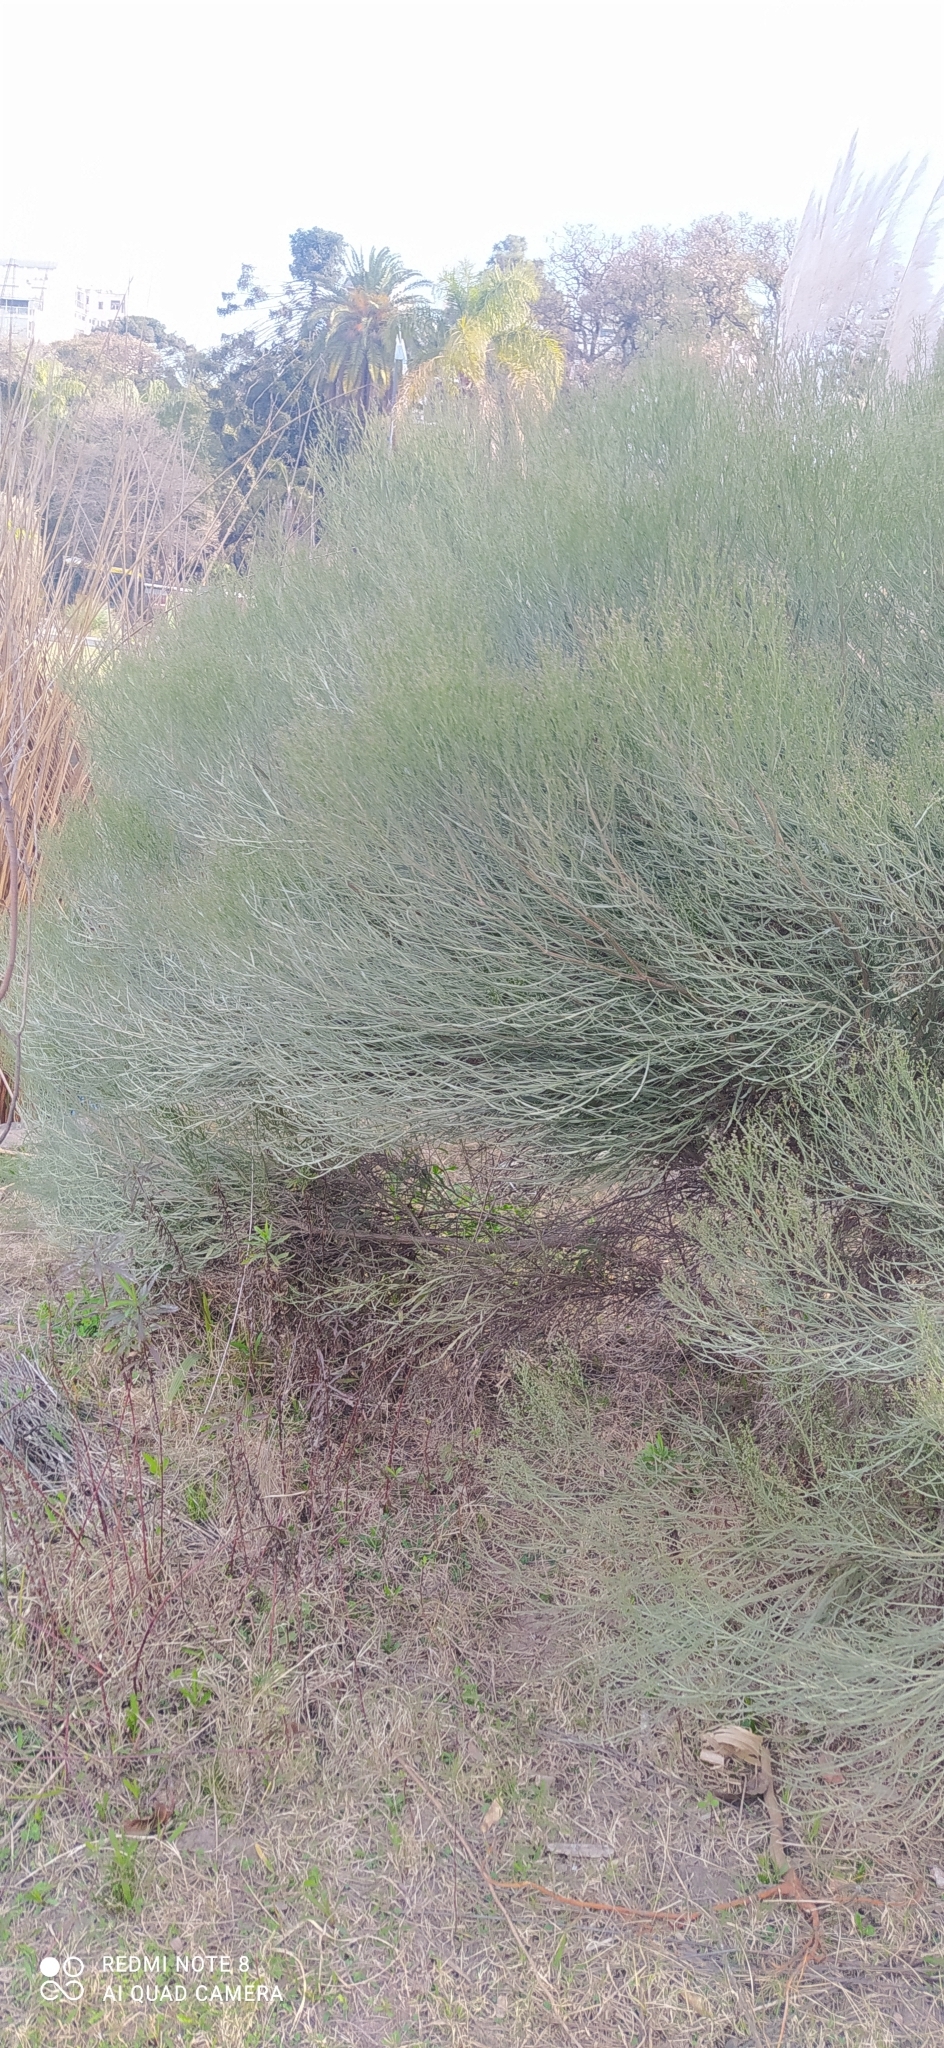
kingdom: Plantae
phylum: Tracheophyta
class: Magnoliopsida
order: Asterales
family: Asteraceae
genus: Baccharis
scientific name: Baccharis articulata
